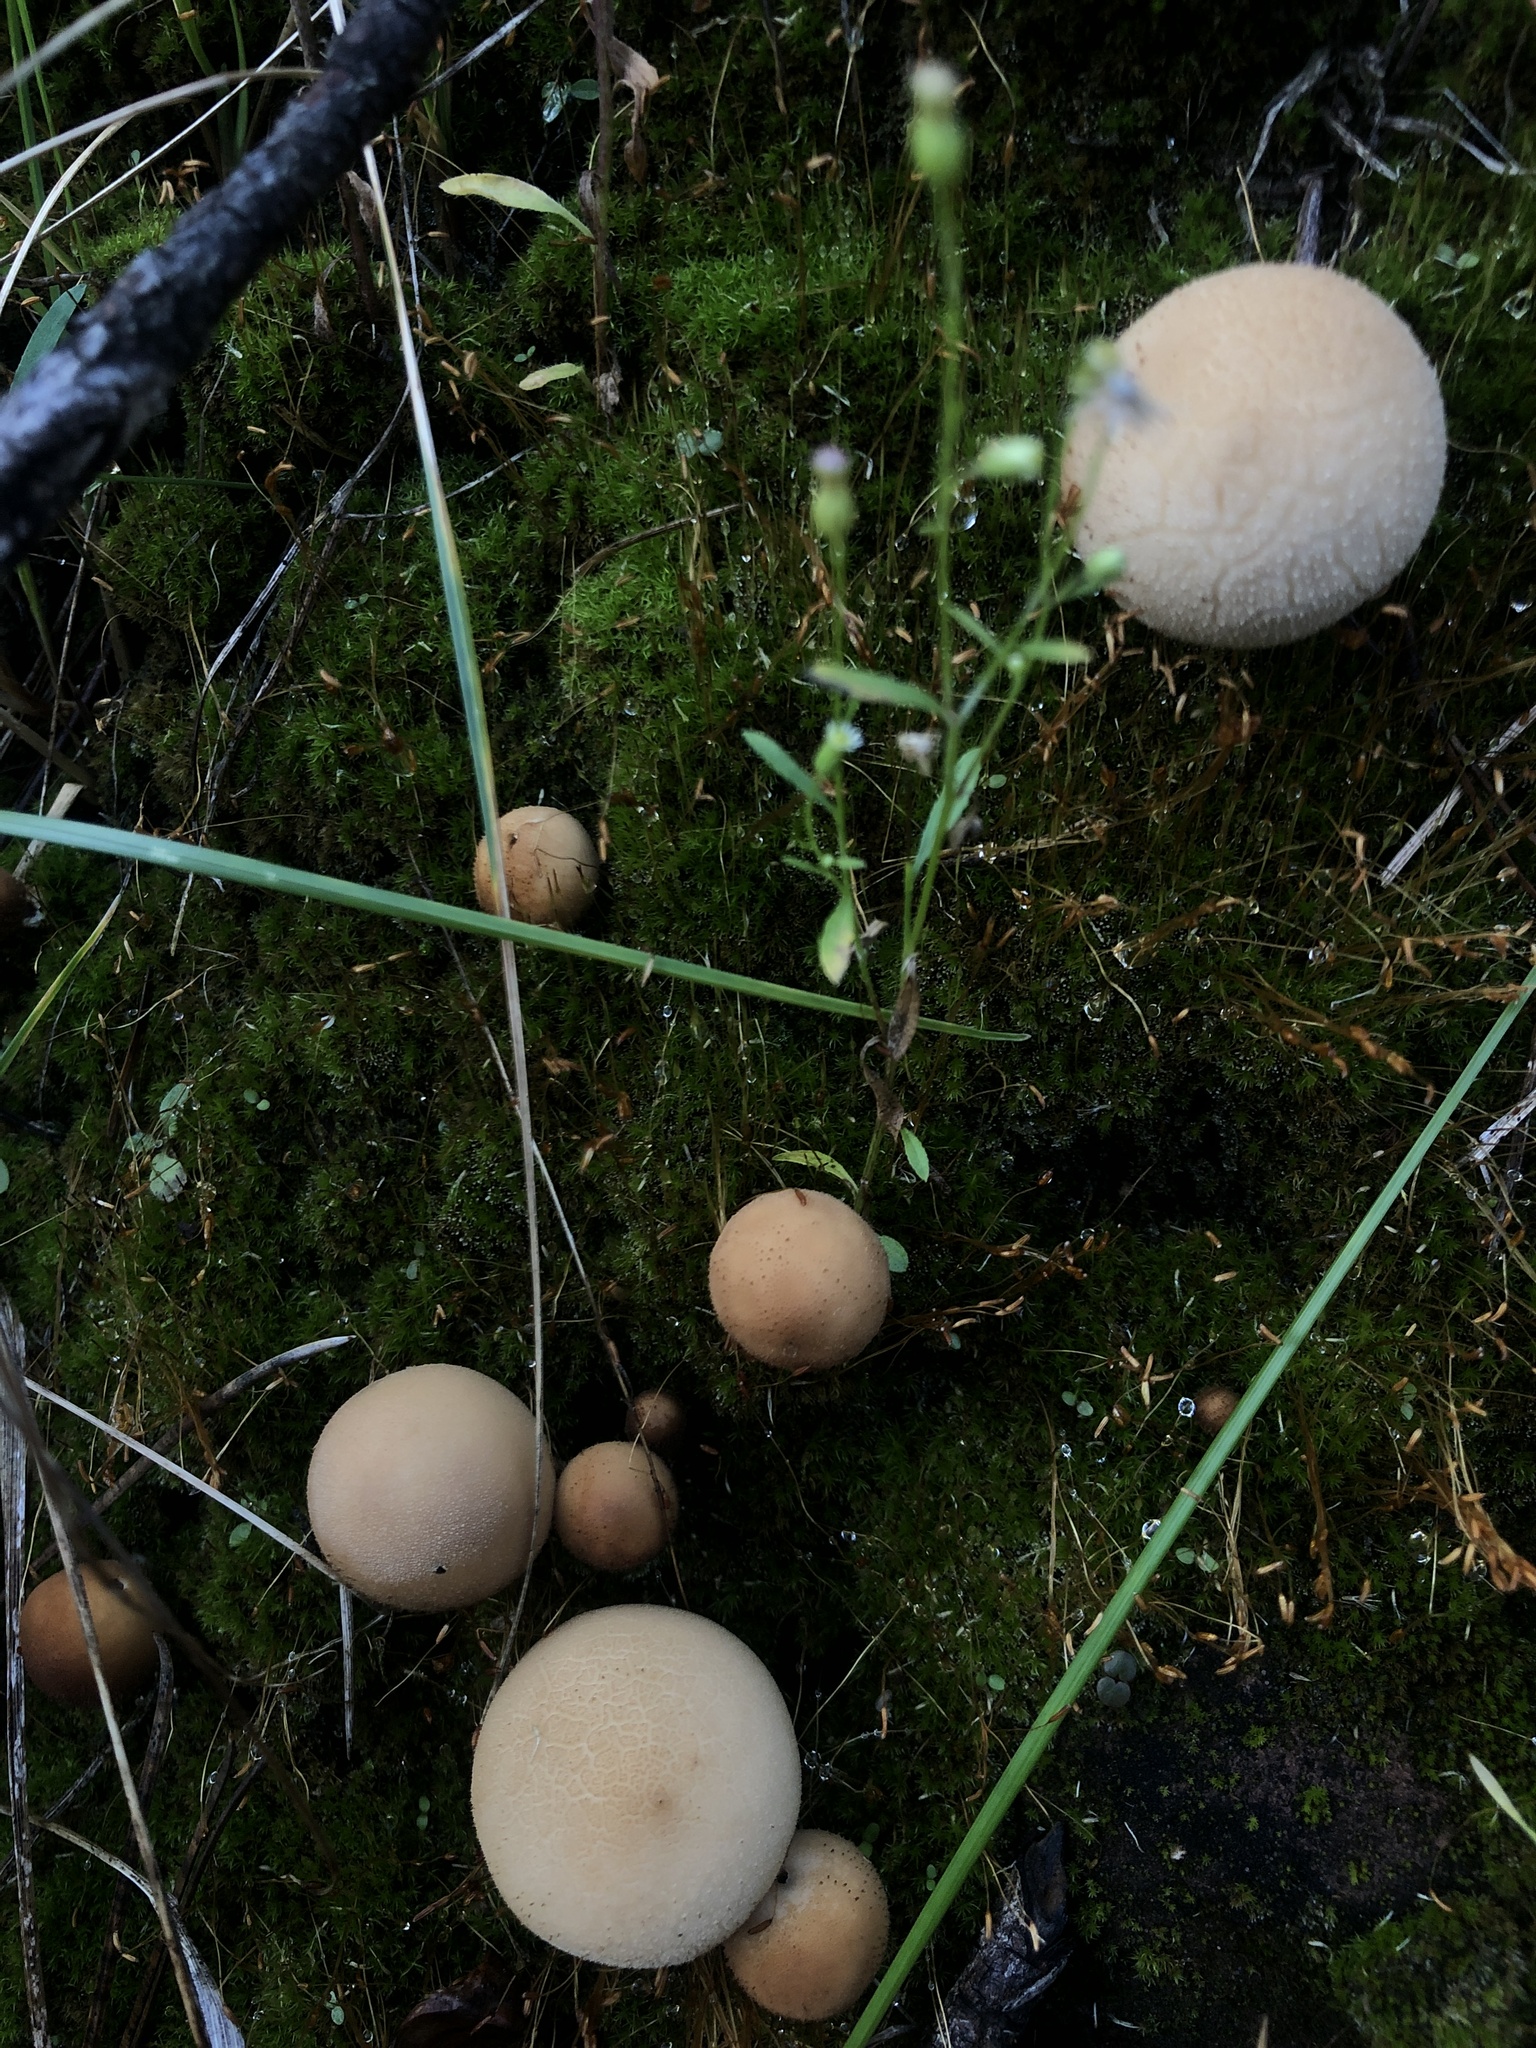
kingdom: Fungi
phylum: Basidiomycota
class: Agaricomycetes
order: Agaricales
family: Lycoperdaceae
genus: Apioperdon
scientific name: Apioperdon pyriforme
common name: Pear-shaped puffball
